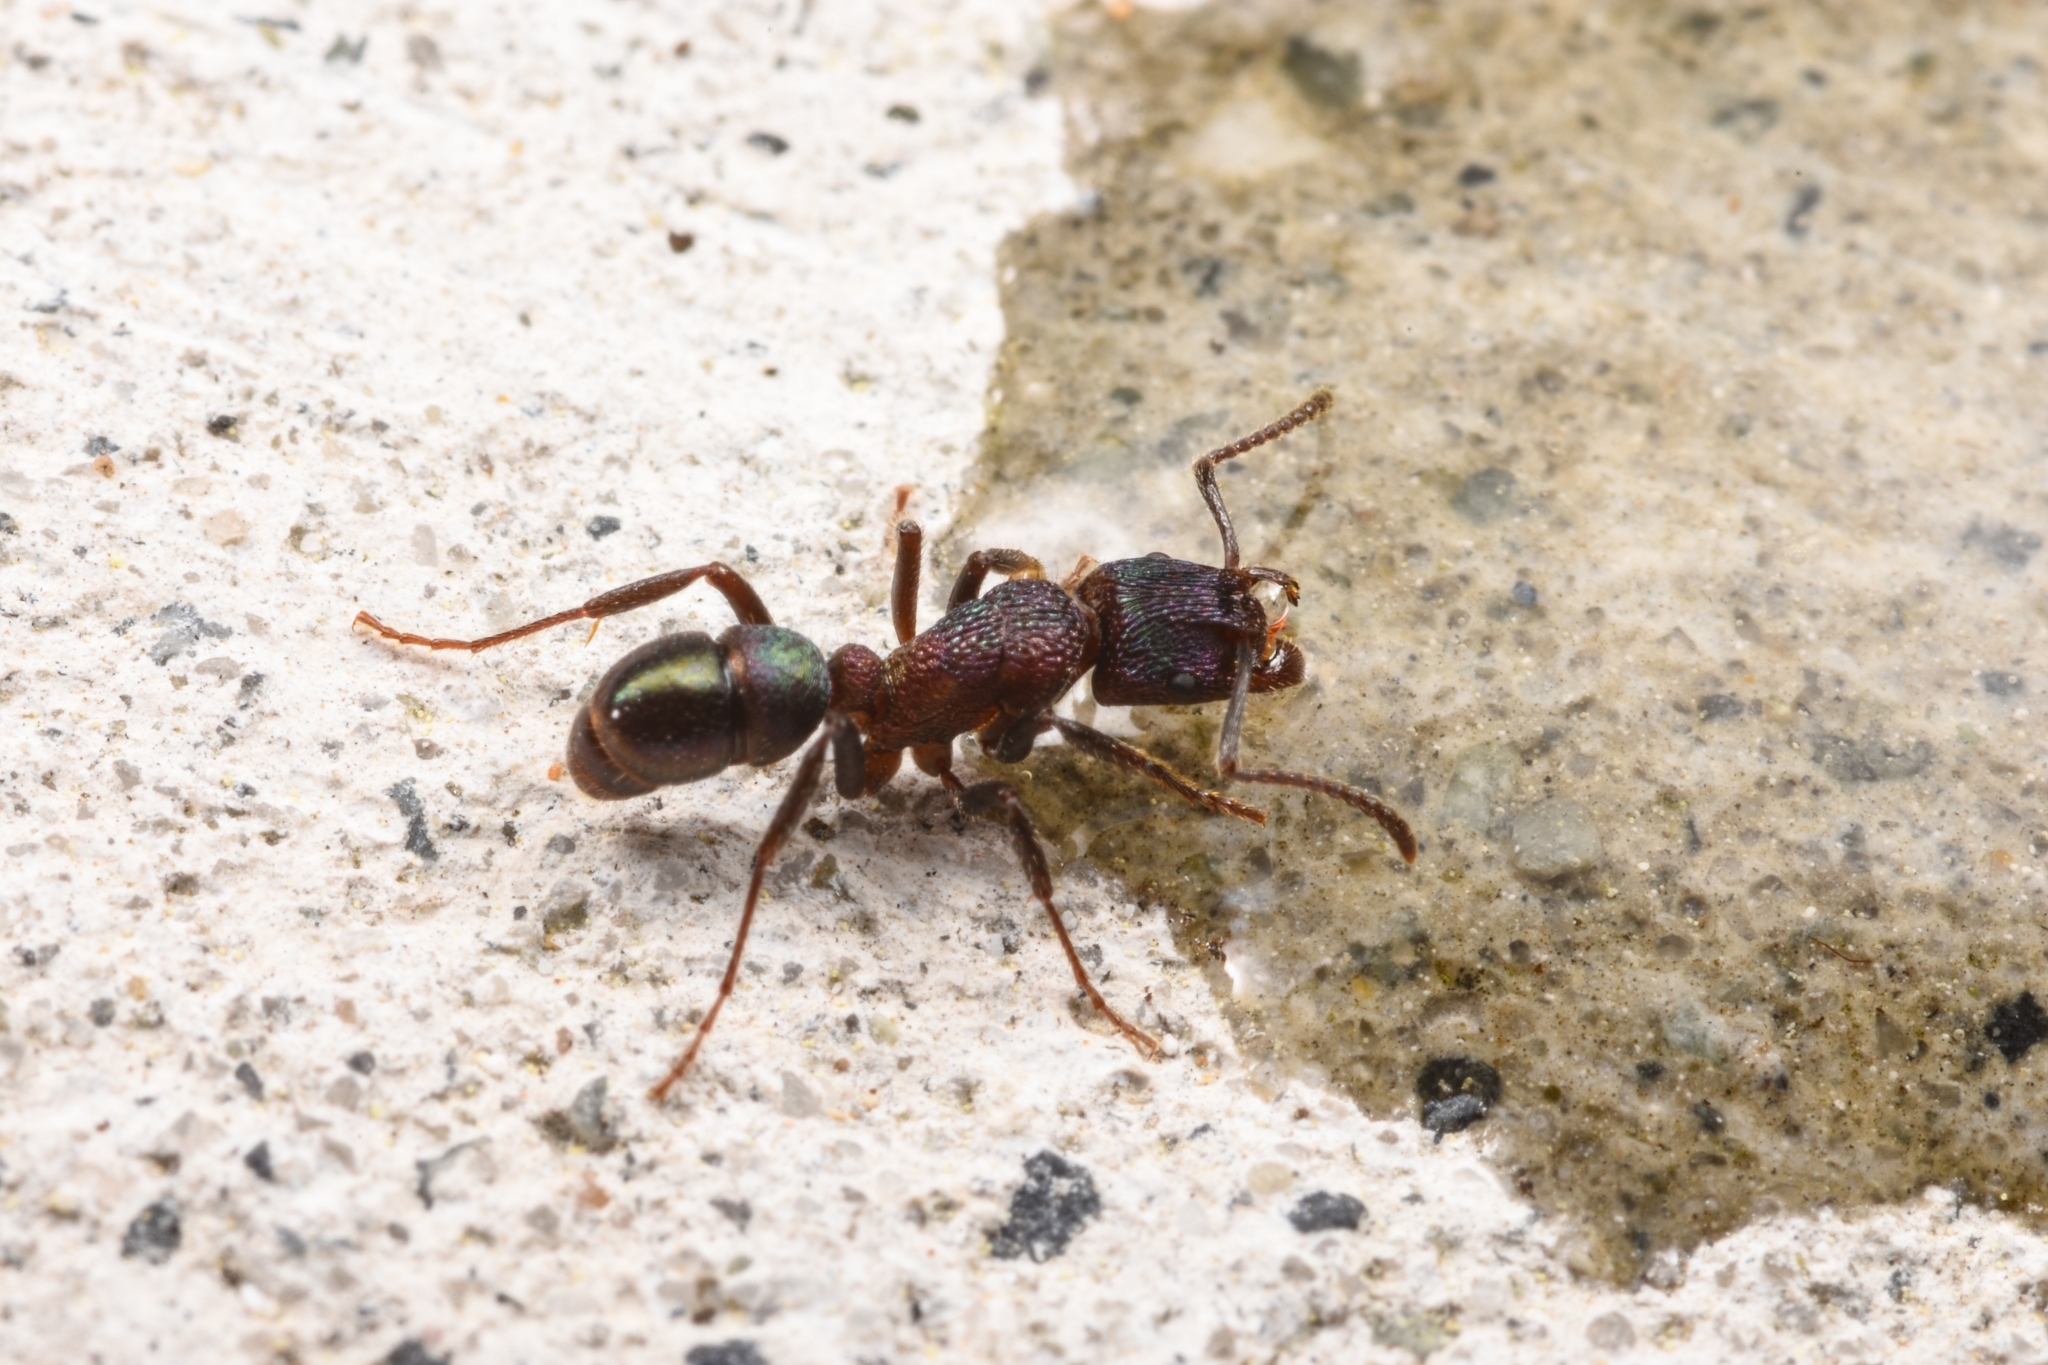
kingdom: Animalia
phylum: Arthropoda
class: Insecta
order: Hymenoptera
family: Formicidae
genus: Rhytidoponera
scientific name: Rhytidoponera metallica
